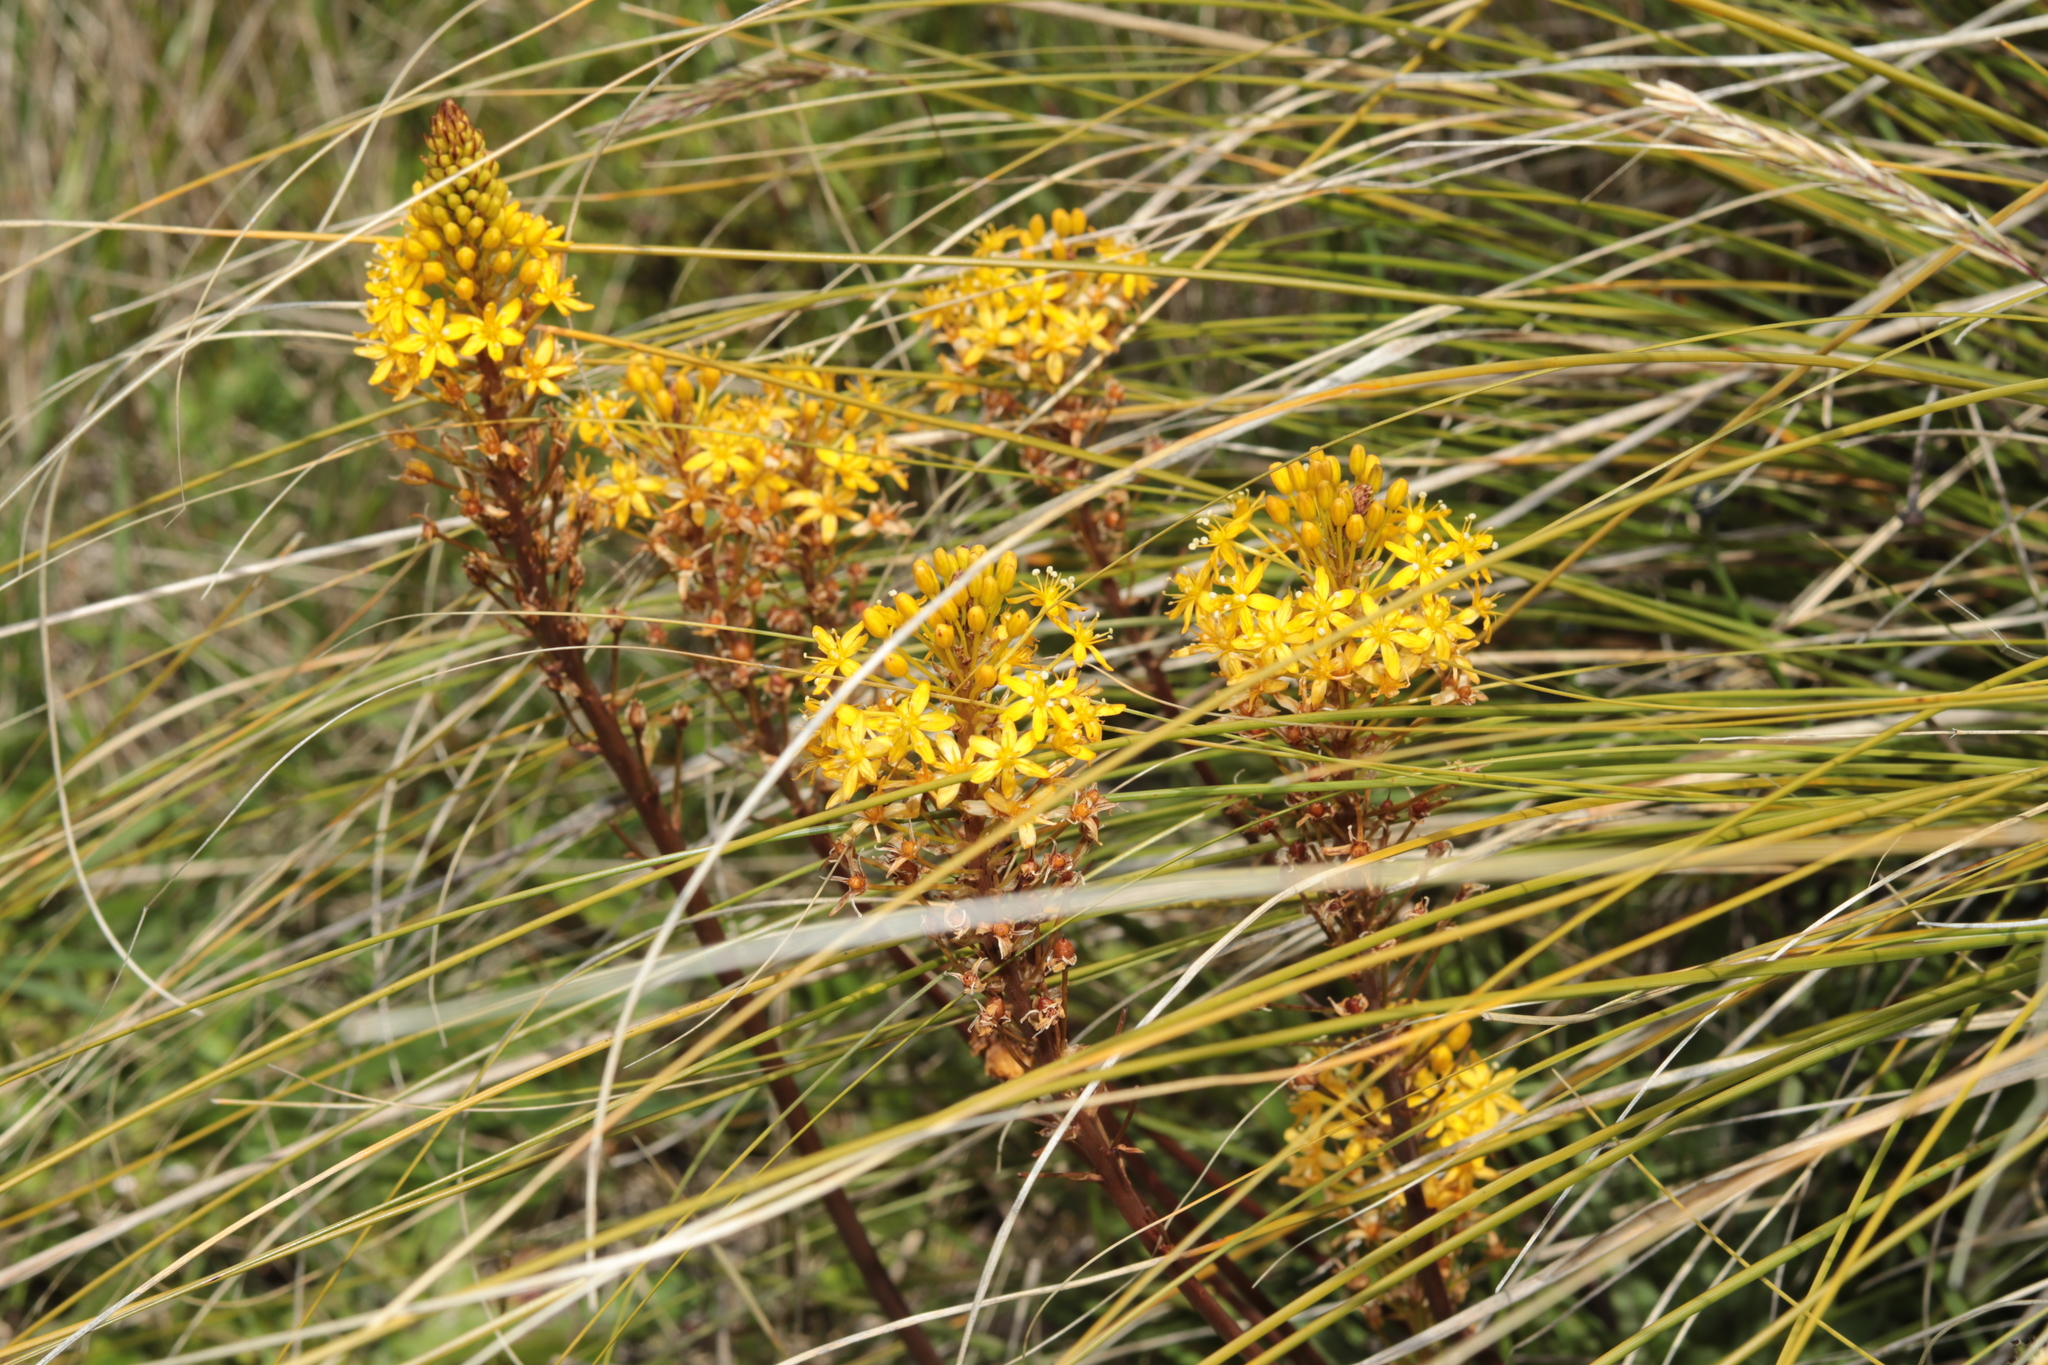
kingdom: Plantae
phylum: Tracheophyta
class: Liliopsida
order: Asparagales
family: Asphodelaceae
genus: Bulbinella
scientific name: Bulbinella angustifolia
